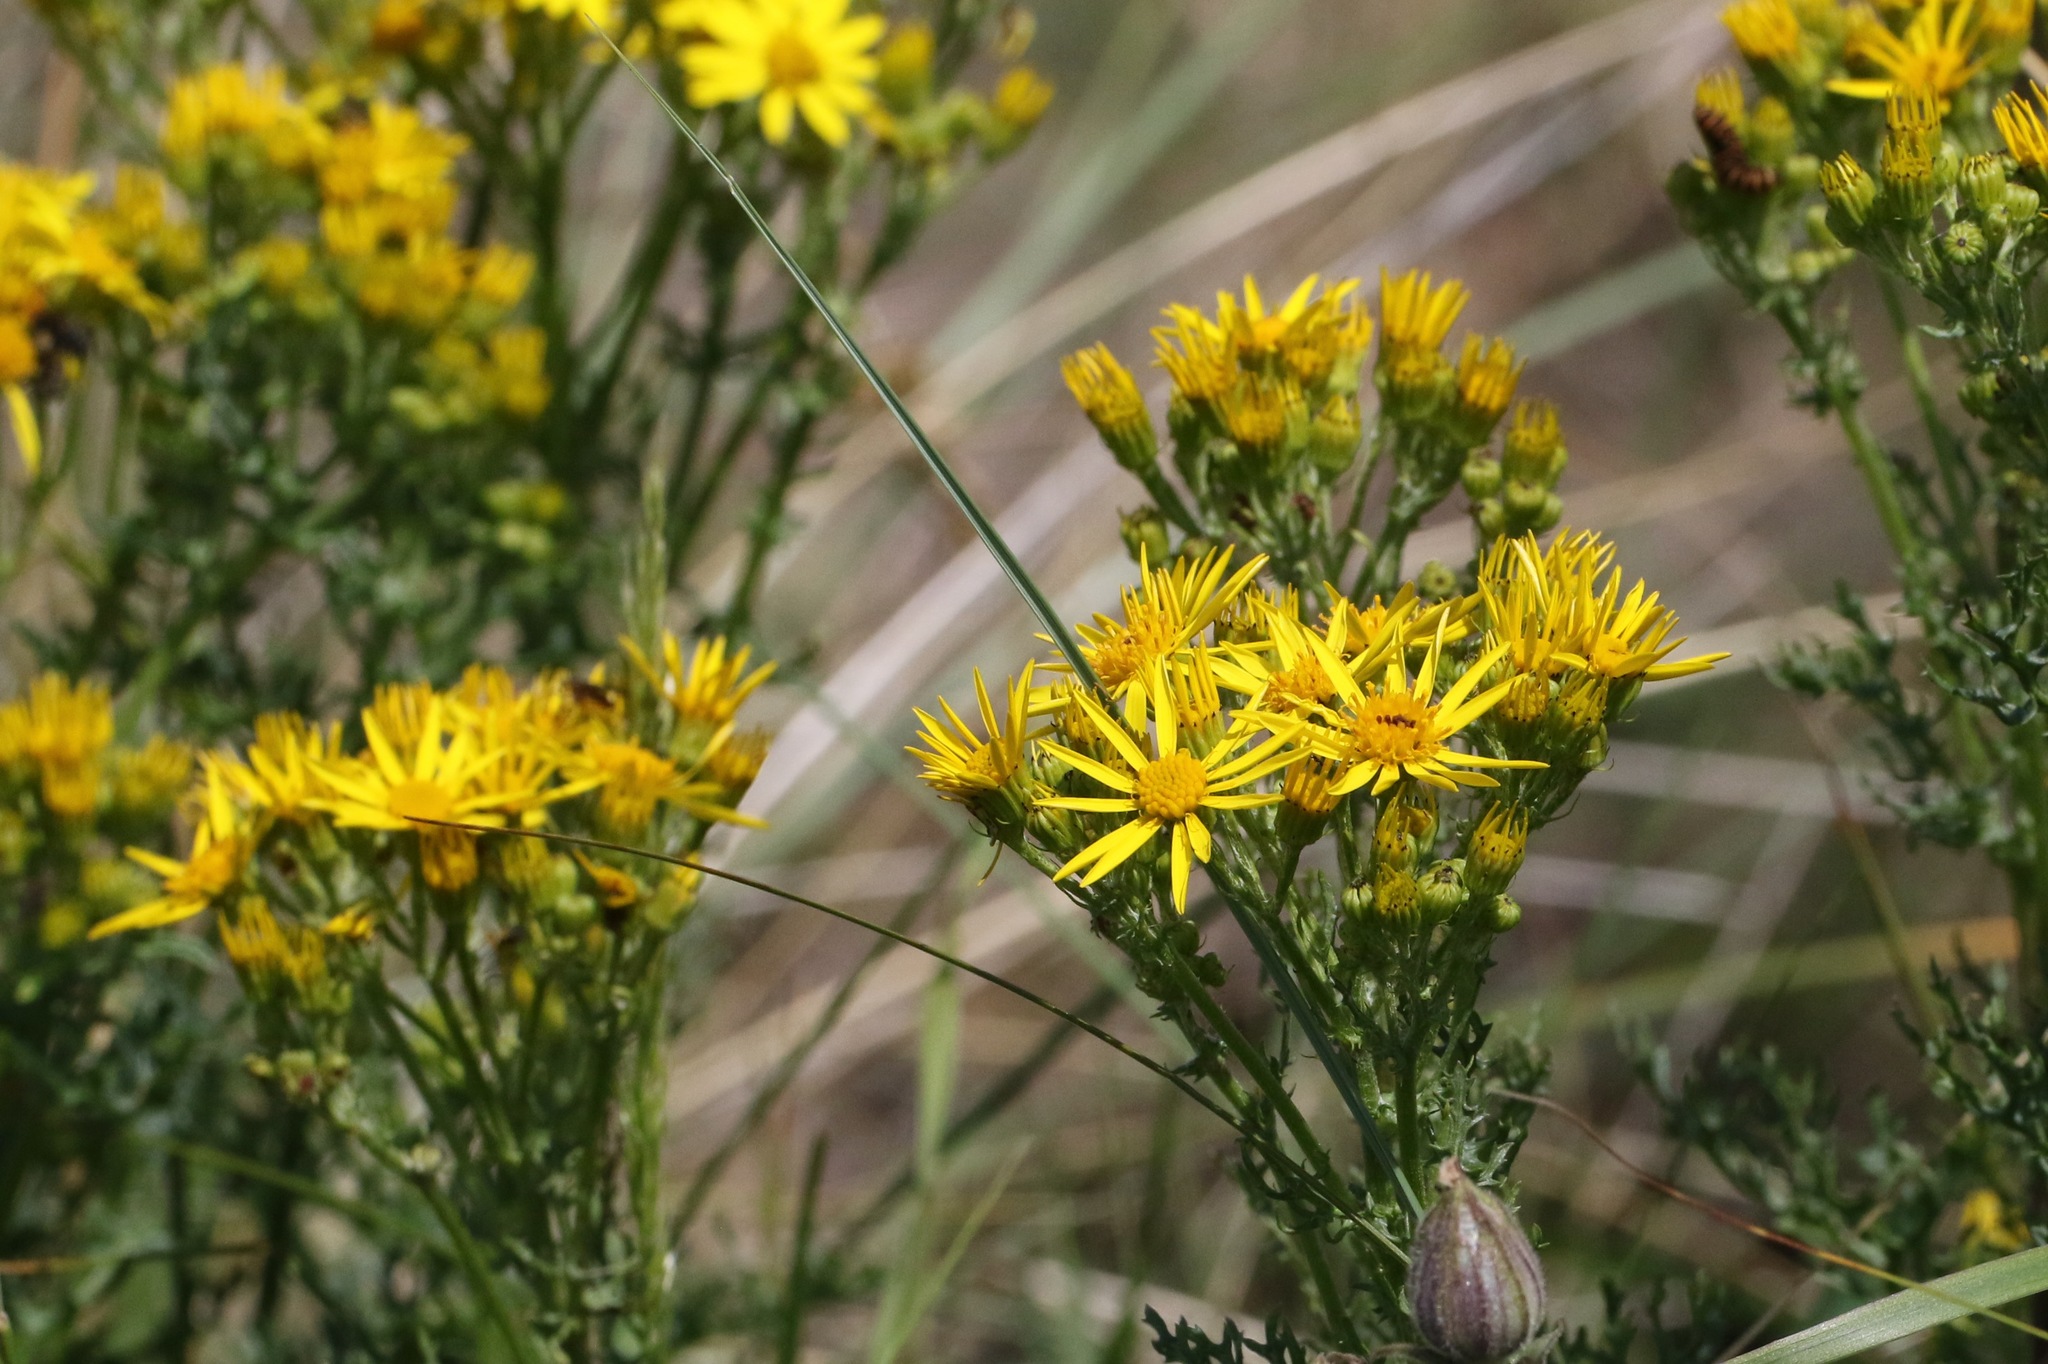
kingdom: Plantae
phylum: Tracheophyta
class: Magnoliopsida
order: Asterales
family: Asteraceae
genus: Jacobaea
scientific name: Jacobaea vulgaris
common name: Stinking willie
